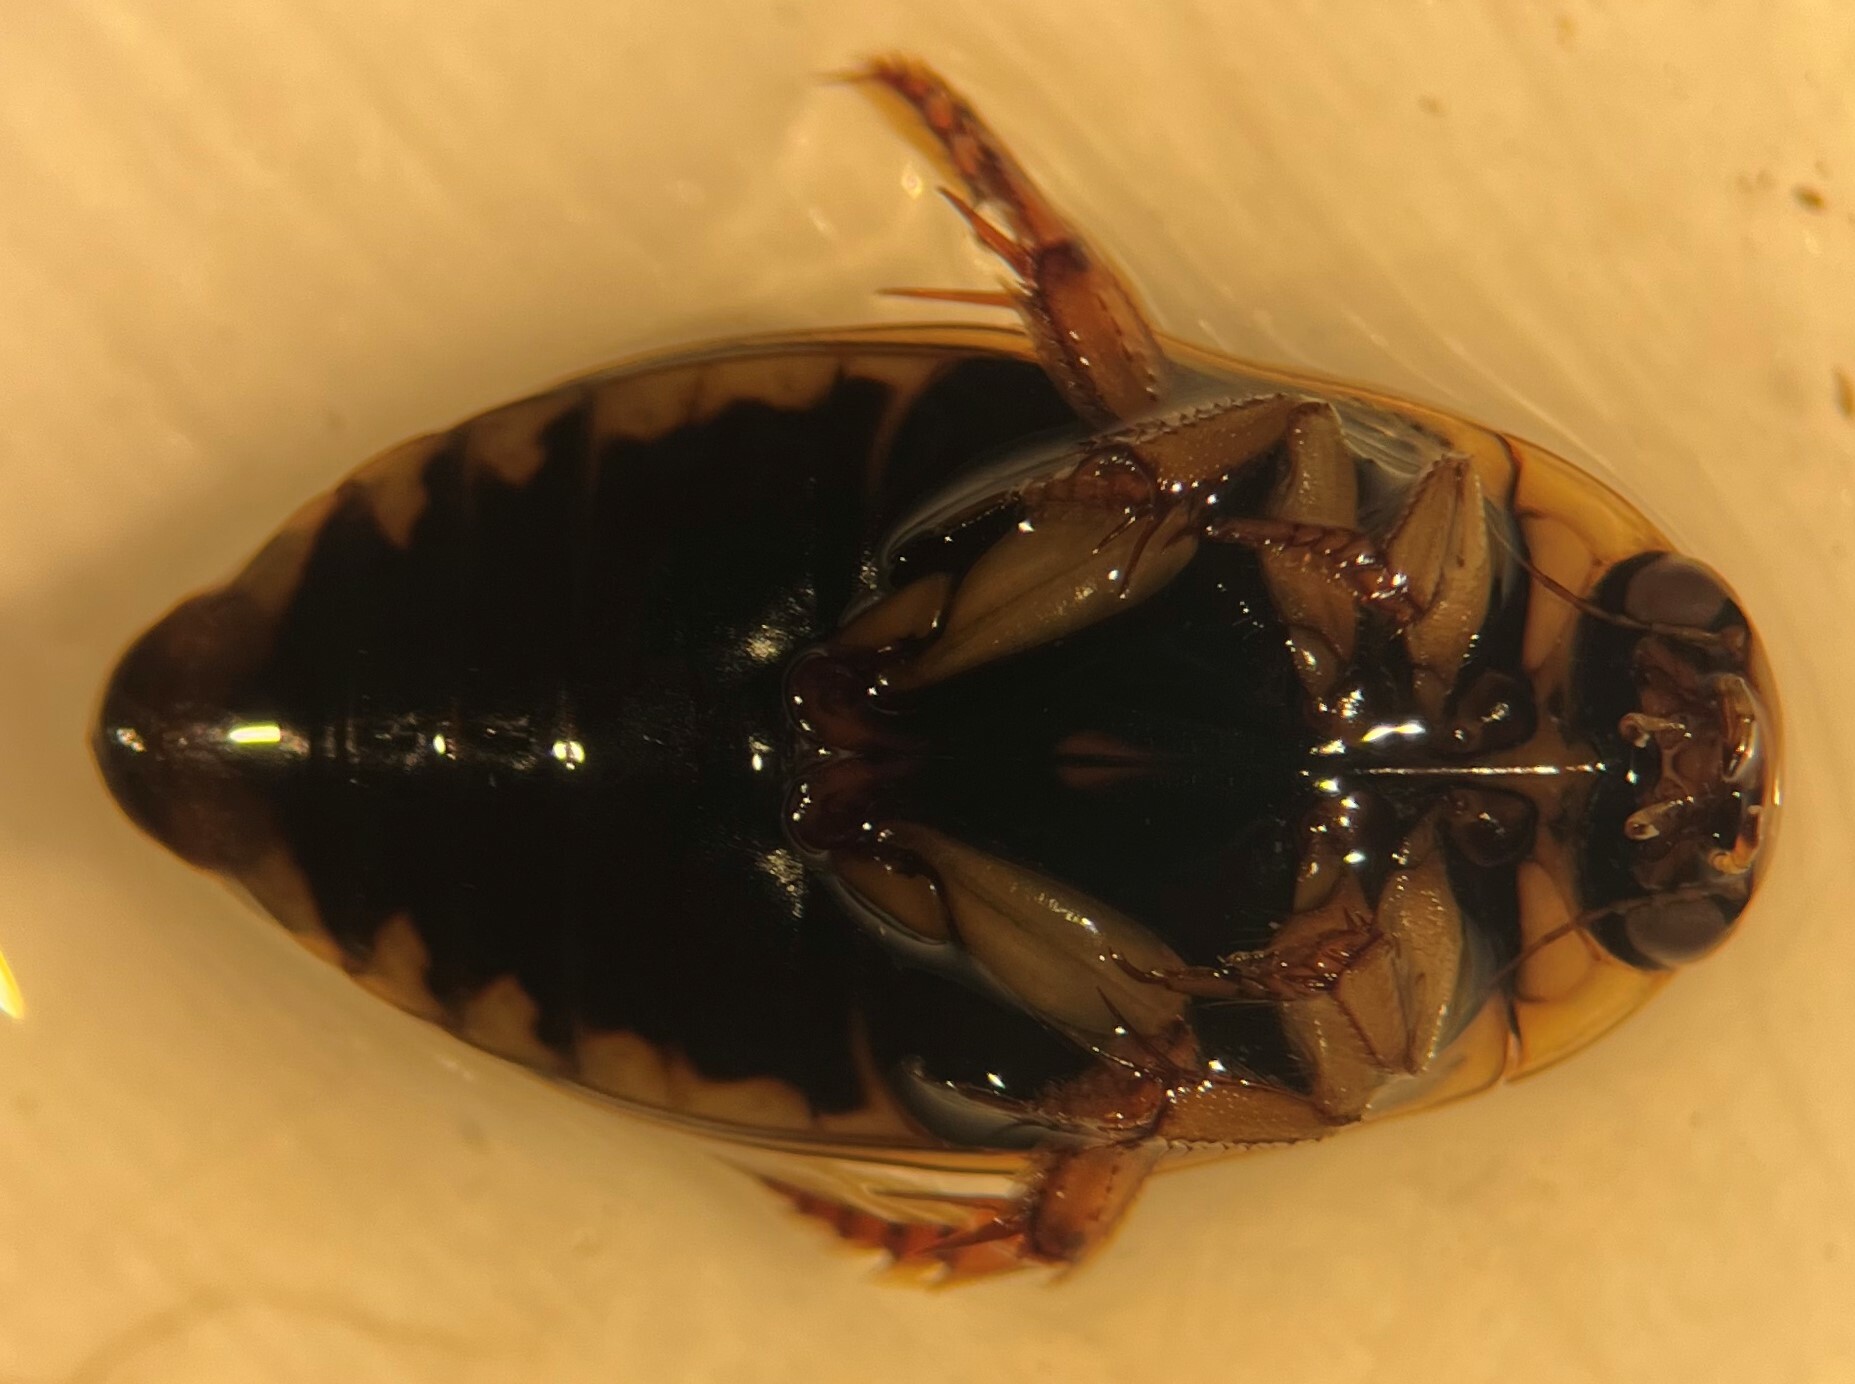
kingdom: Animalia
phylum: Arthropoda
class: Insecta
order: Coleoptera
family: Dytiscidae
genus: Rhantus
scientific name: Rhantus gutticollis
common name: Predaceous diving beetle
